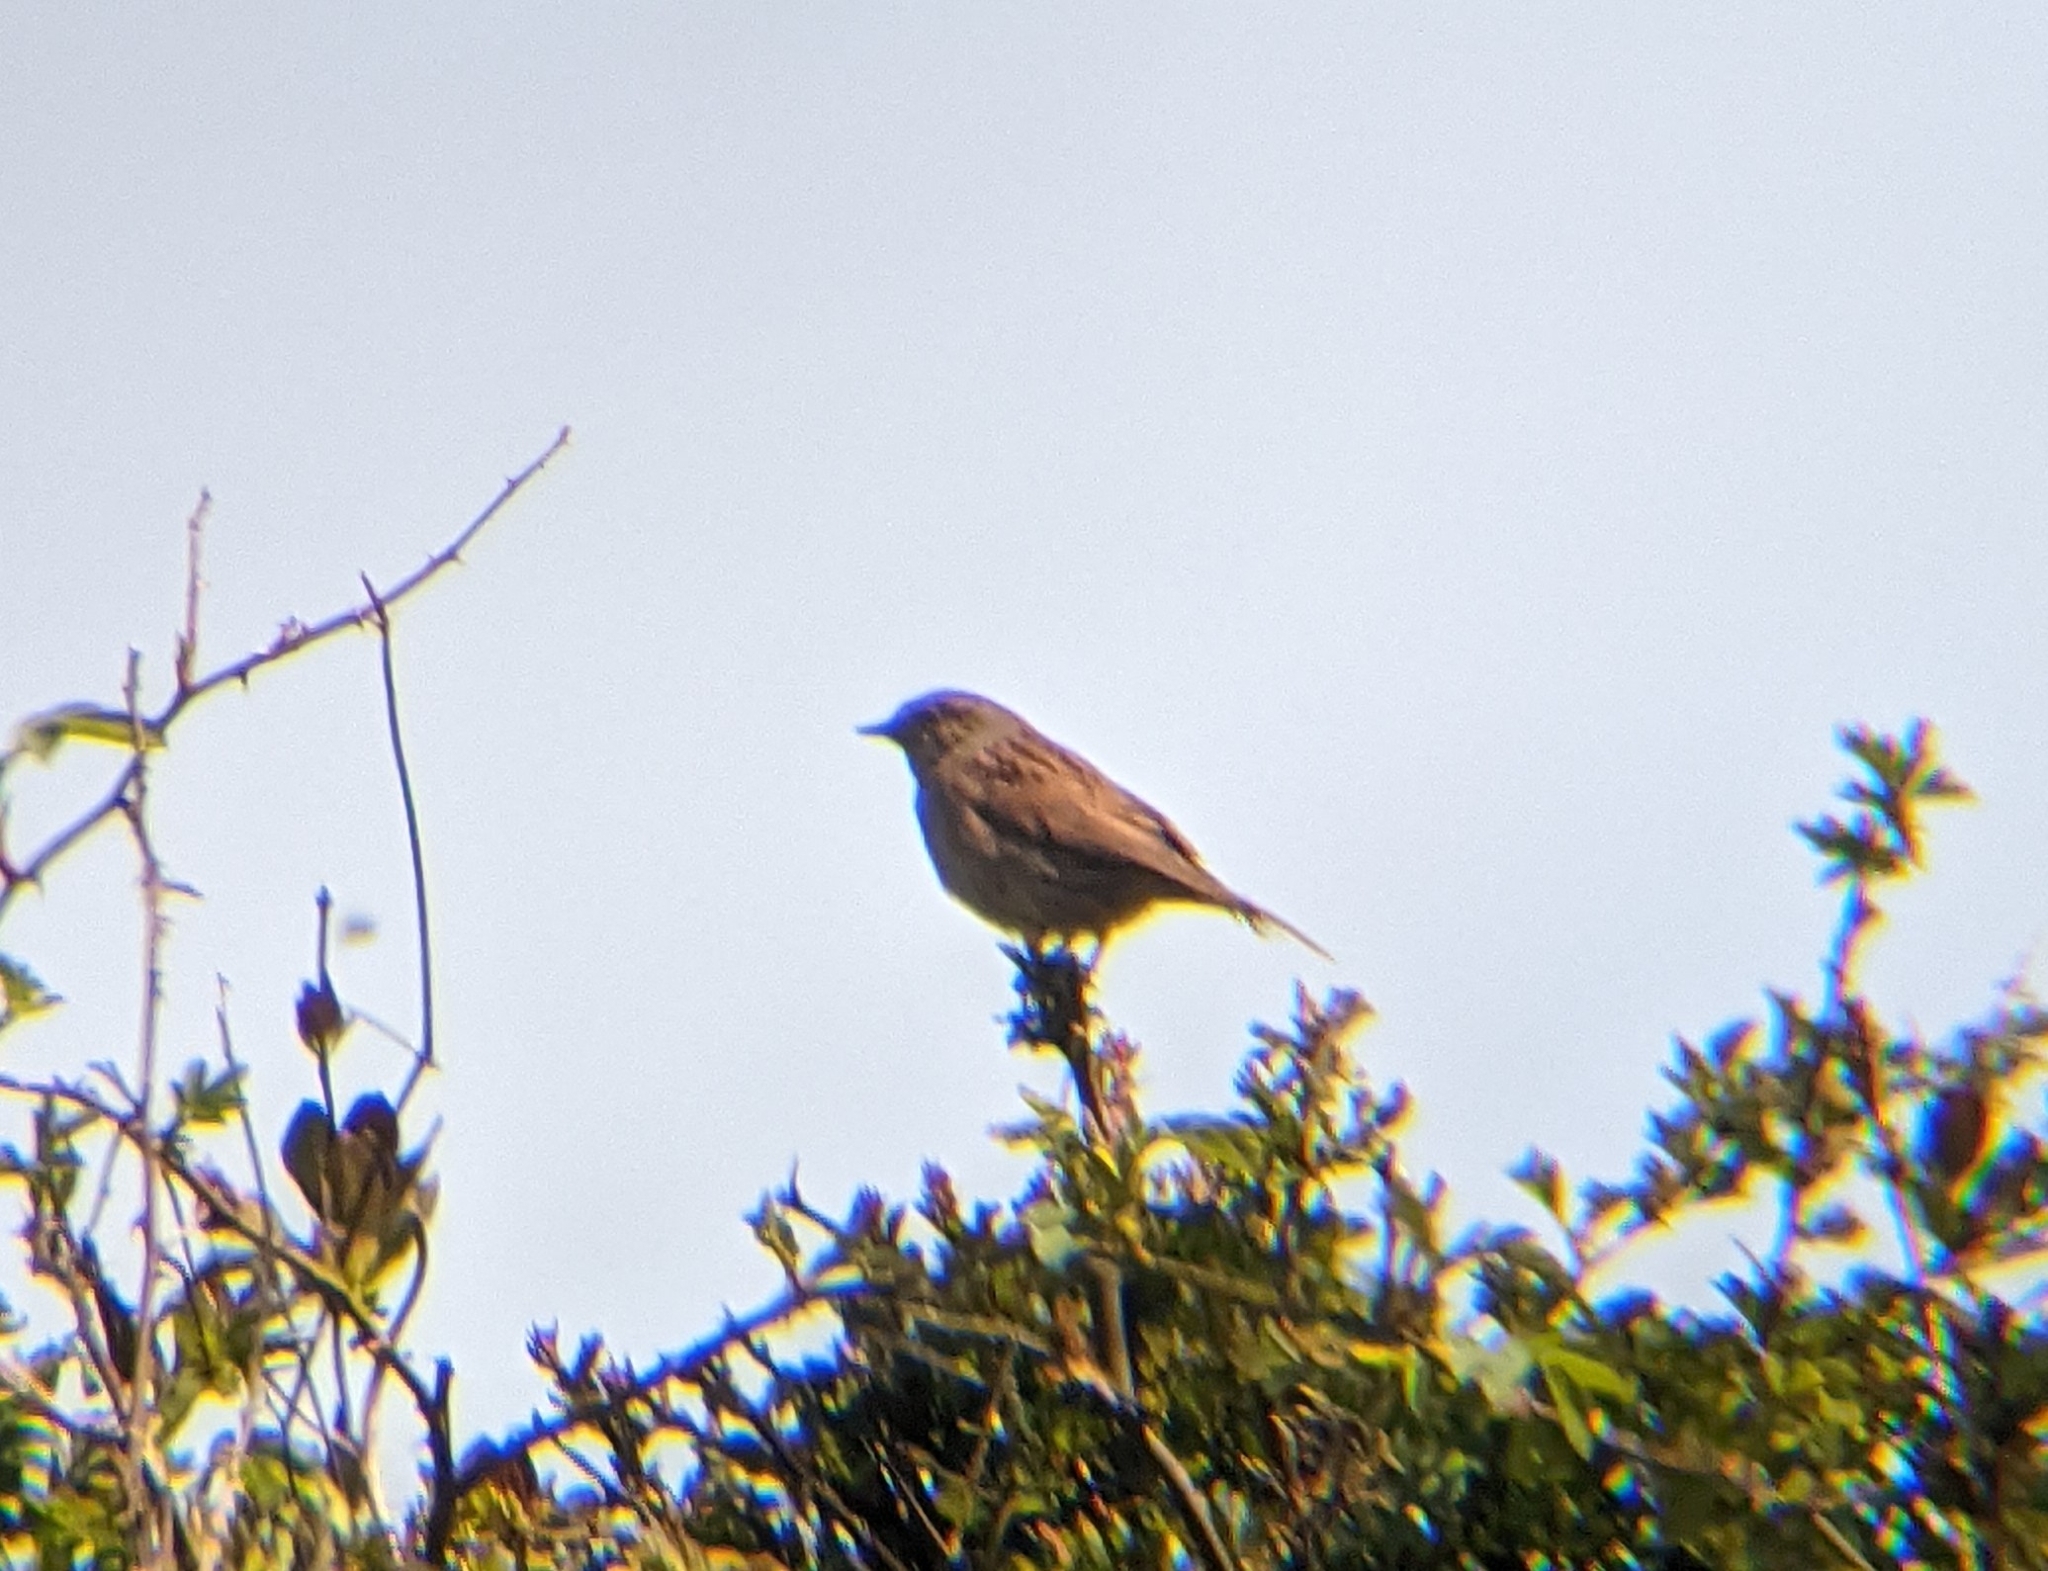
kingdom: Animalia
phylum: Chordata
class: Aves
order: Passeriformes
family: Prunellidae
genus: Prunella
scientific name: Prunella modularis
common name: Dunnock
